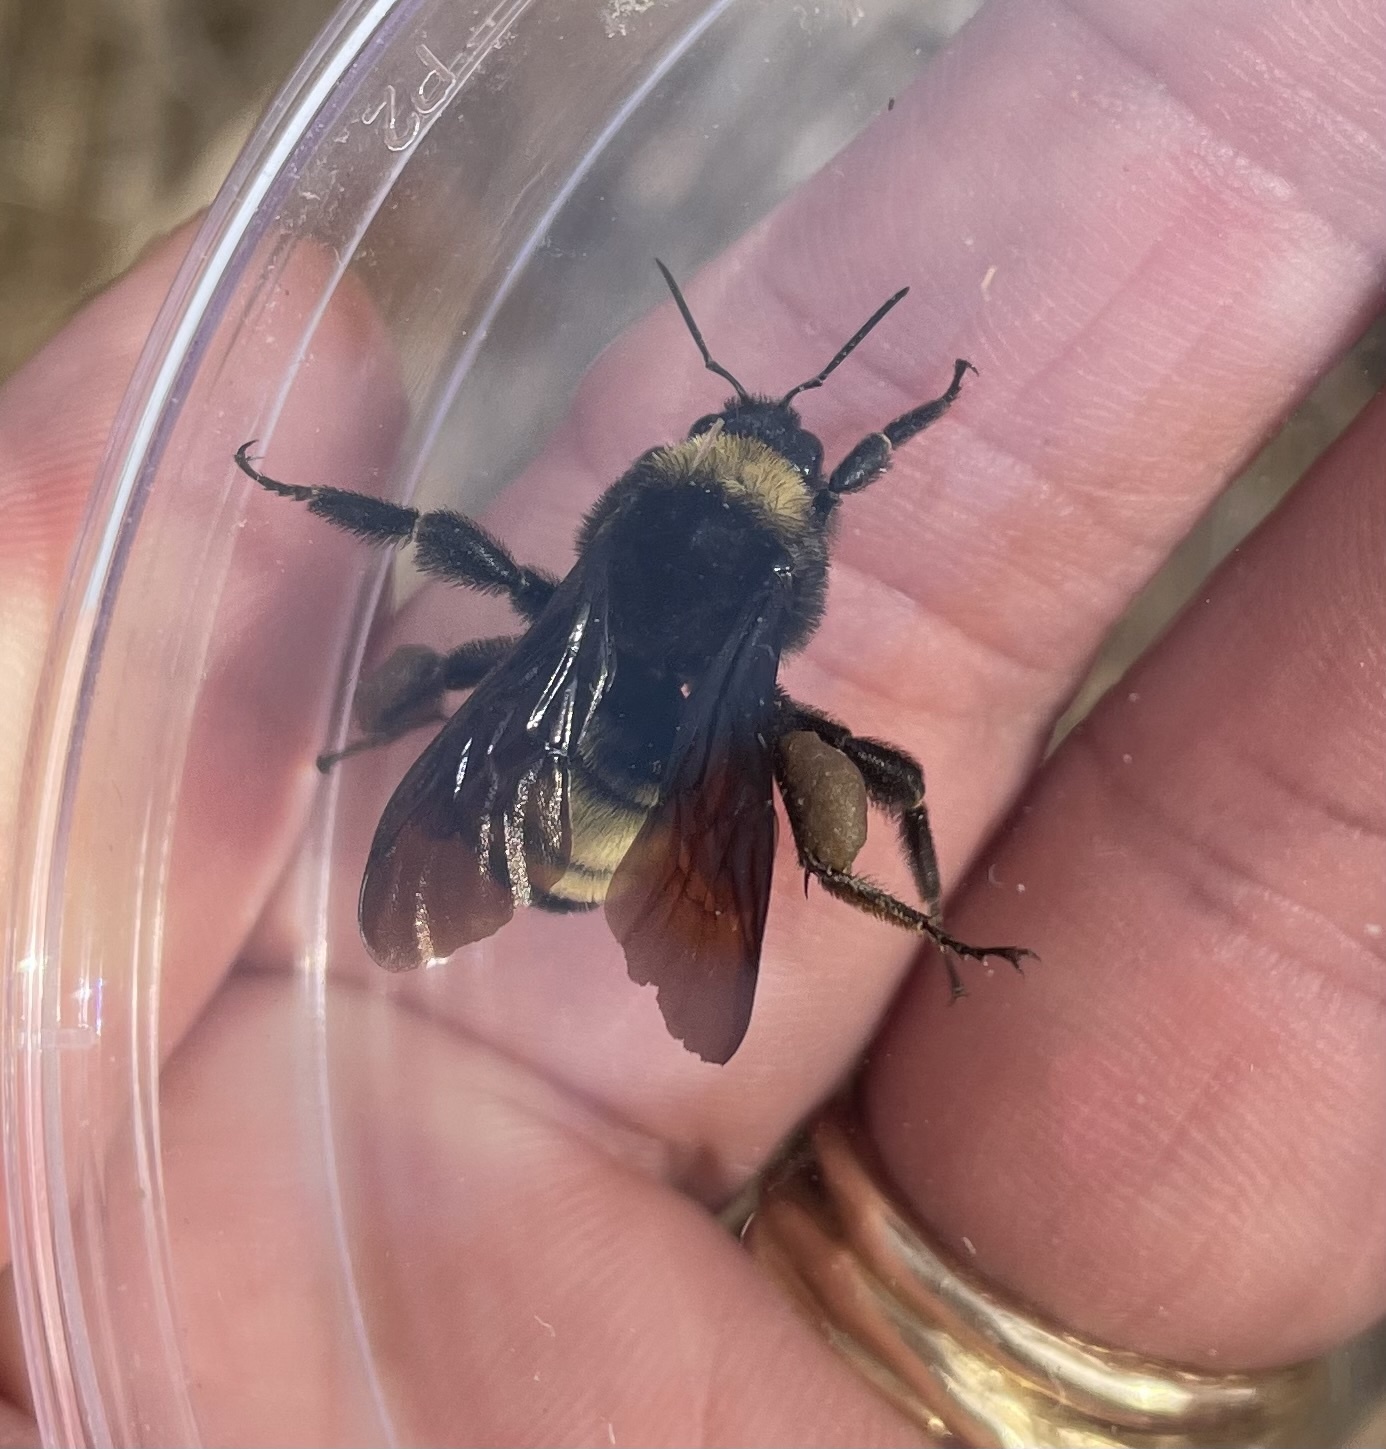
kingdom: Animalia
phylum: Arthropoda
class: Insecta
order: Hymenoptera
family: Apidae
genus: Bombus
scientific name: Bombus pensylvanicus
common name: Bumble bee
